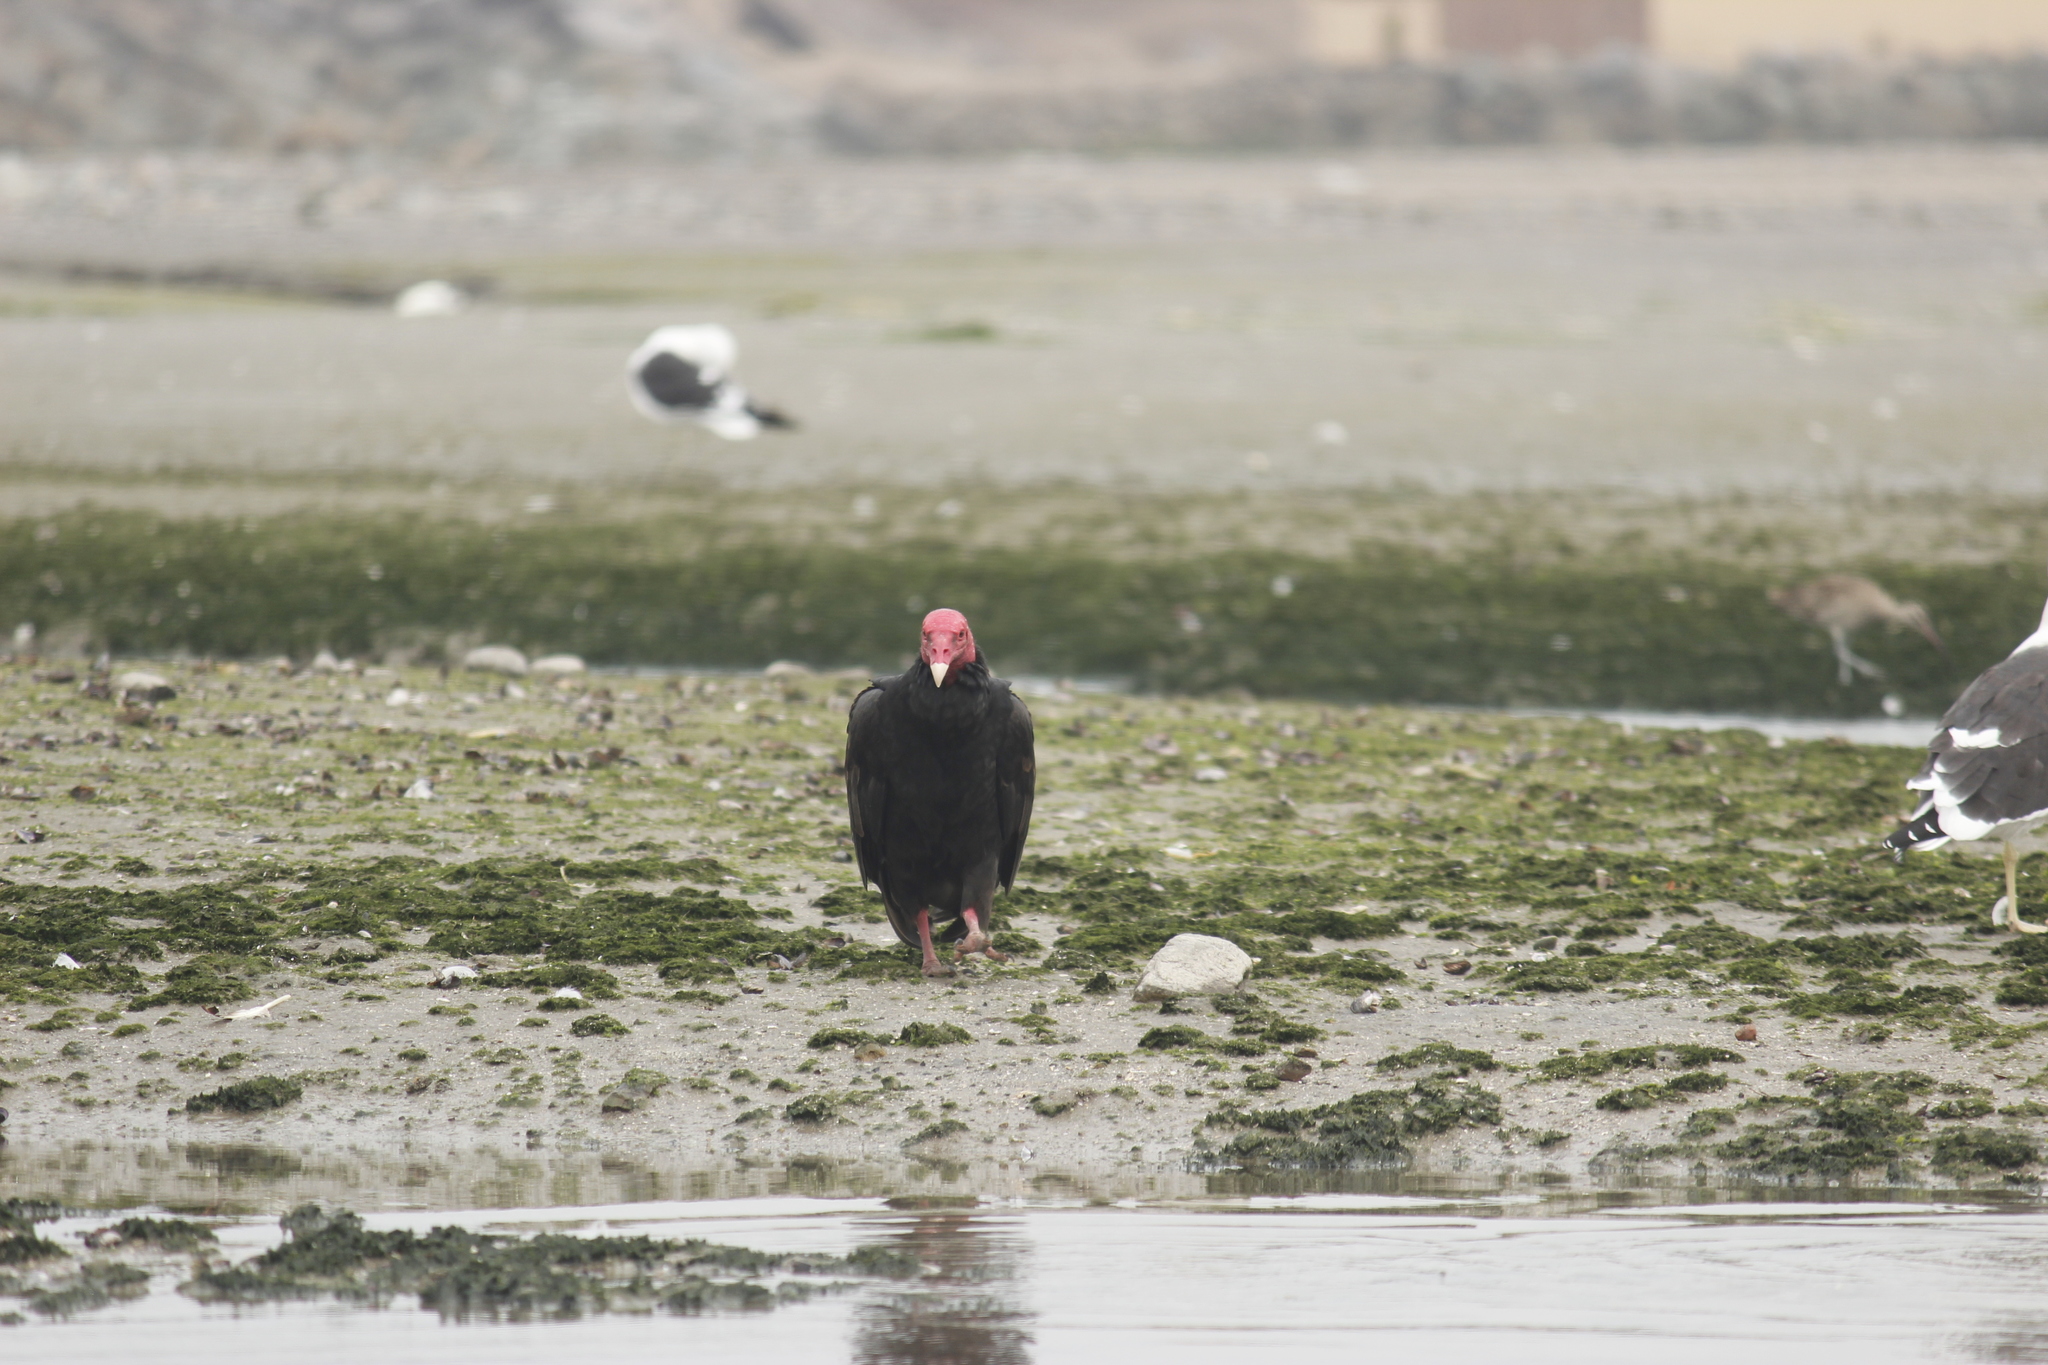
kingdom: Animalia
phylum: Chordata
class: Aves
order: Accipitriformes
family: Cathartidae
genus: Cathartes
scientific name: Cathartes aura
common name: Turkey vulture
